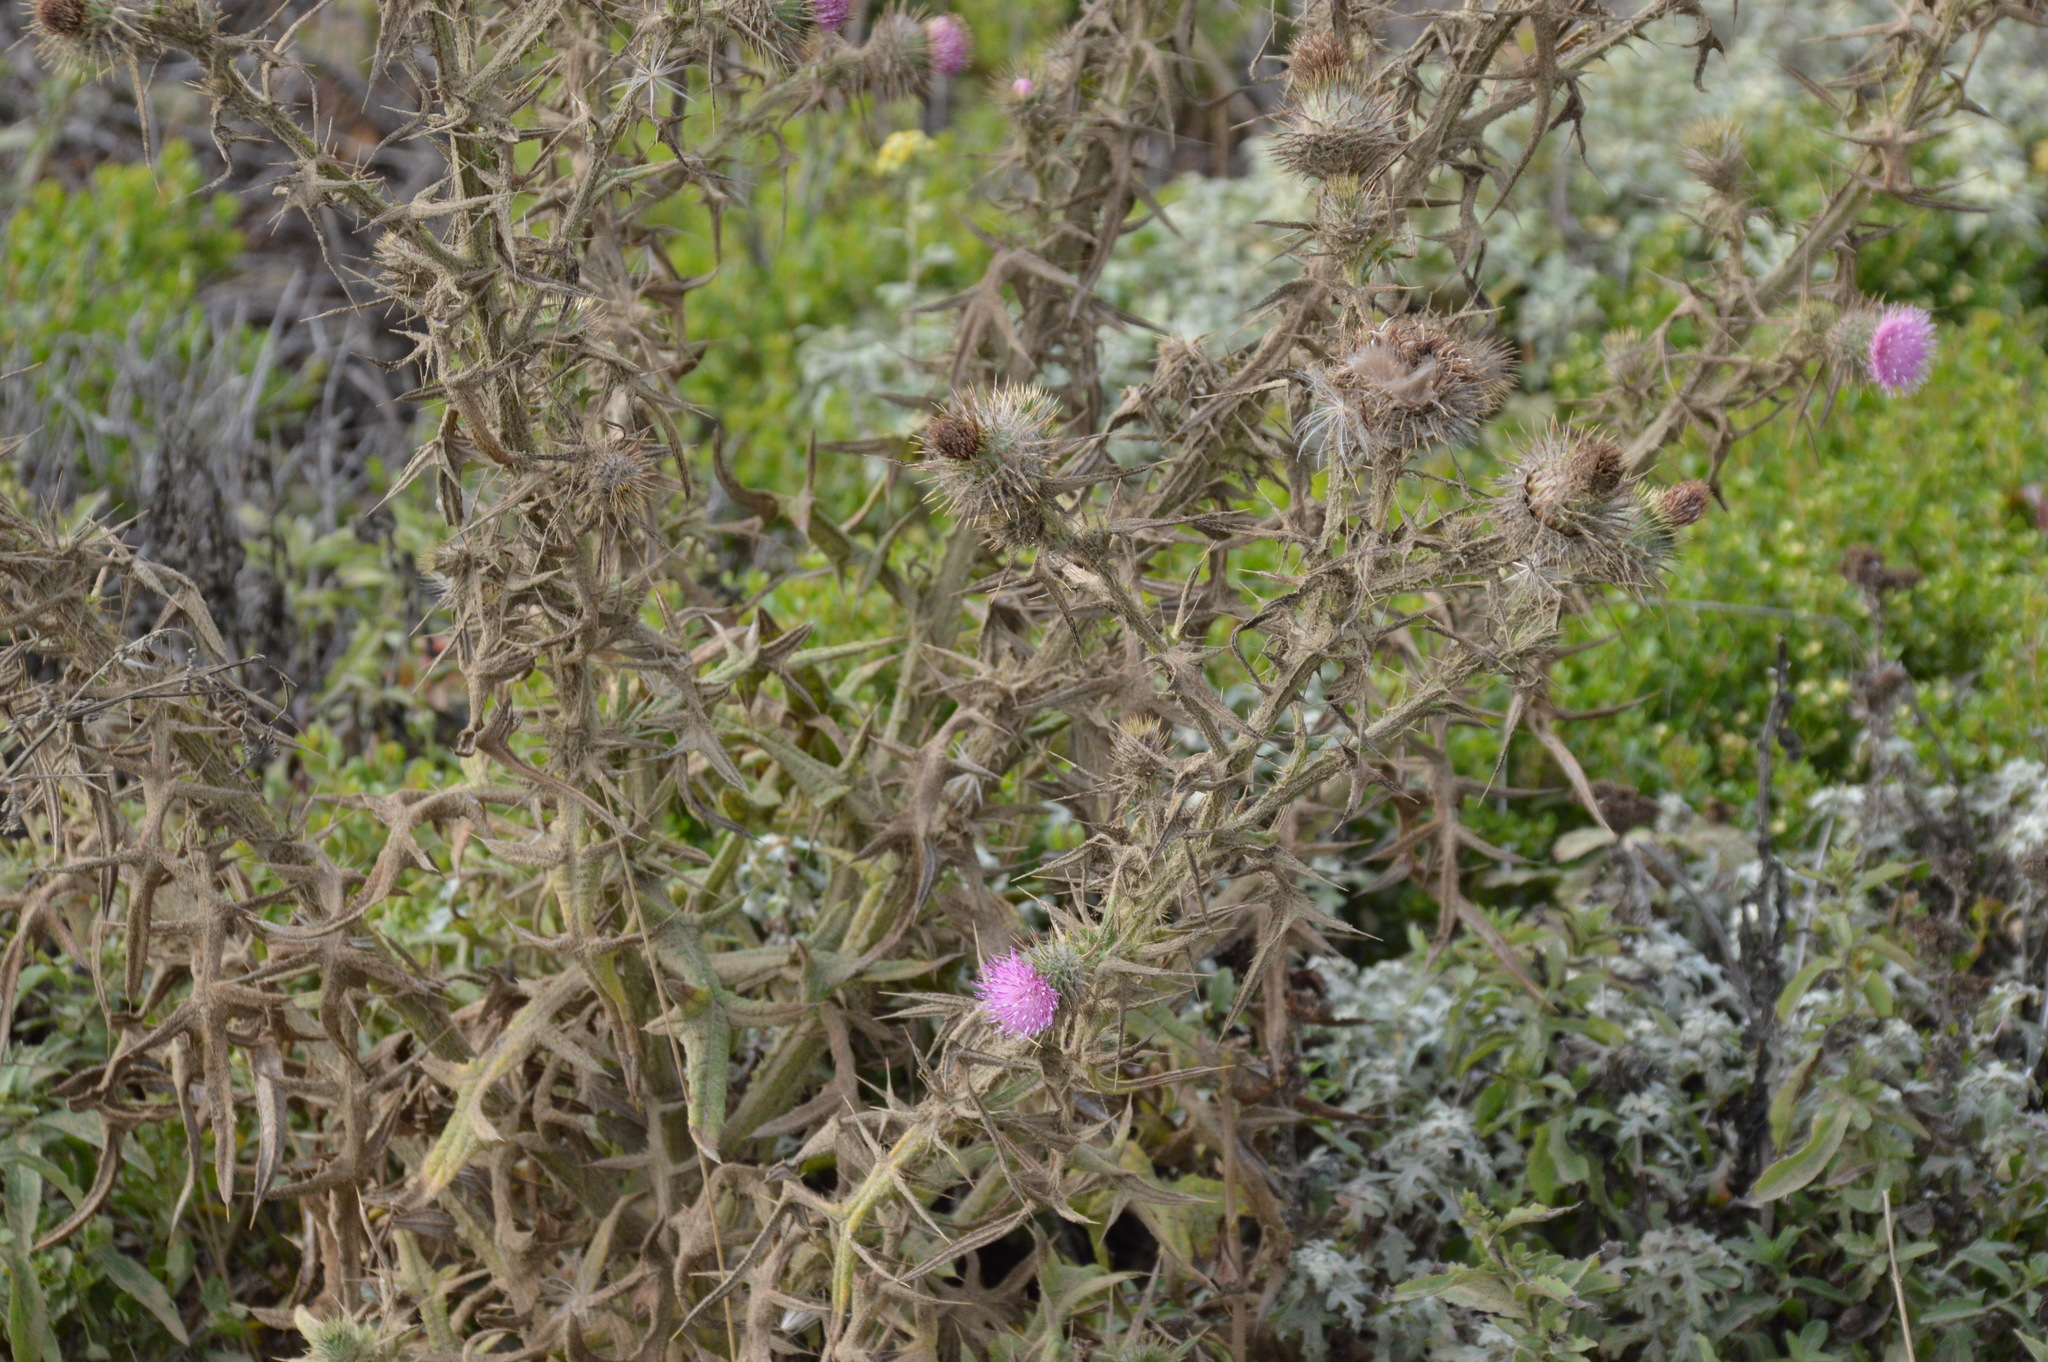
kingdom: Plantae
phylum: Tracheophyta
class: Magnoliopsida
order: Asterales
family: Asteraceae
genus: Cirsium
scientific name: Cirsium vulgare
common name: Bull thistle
